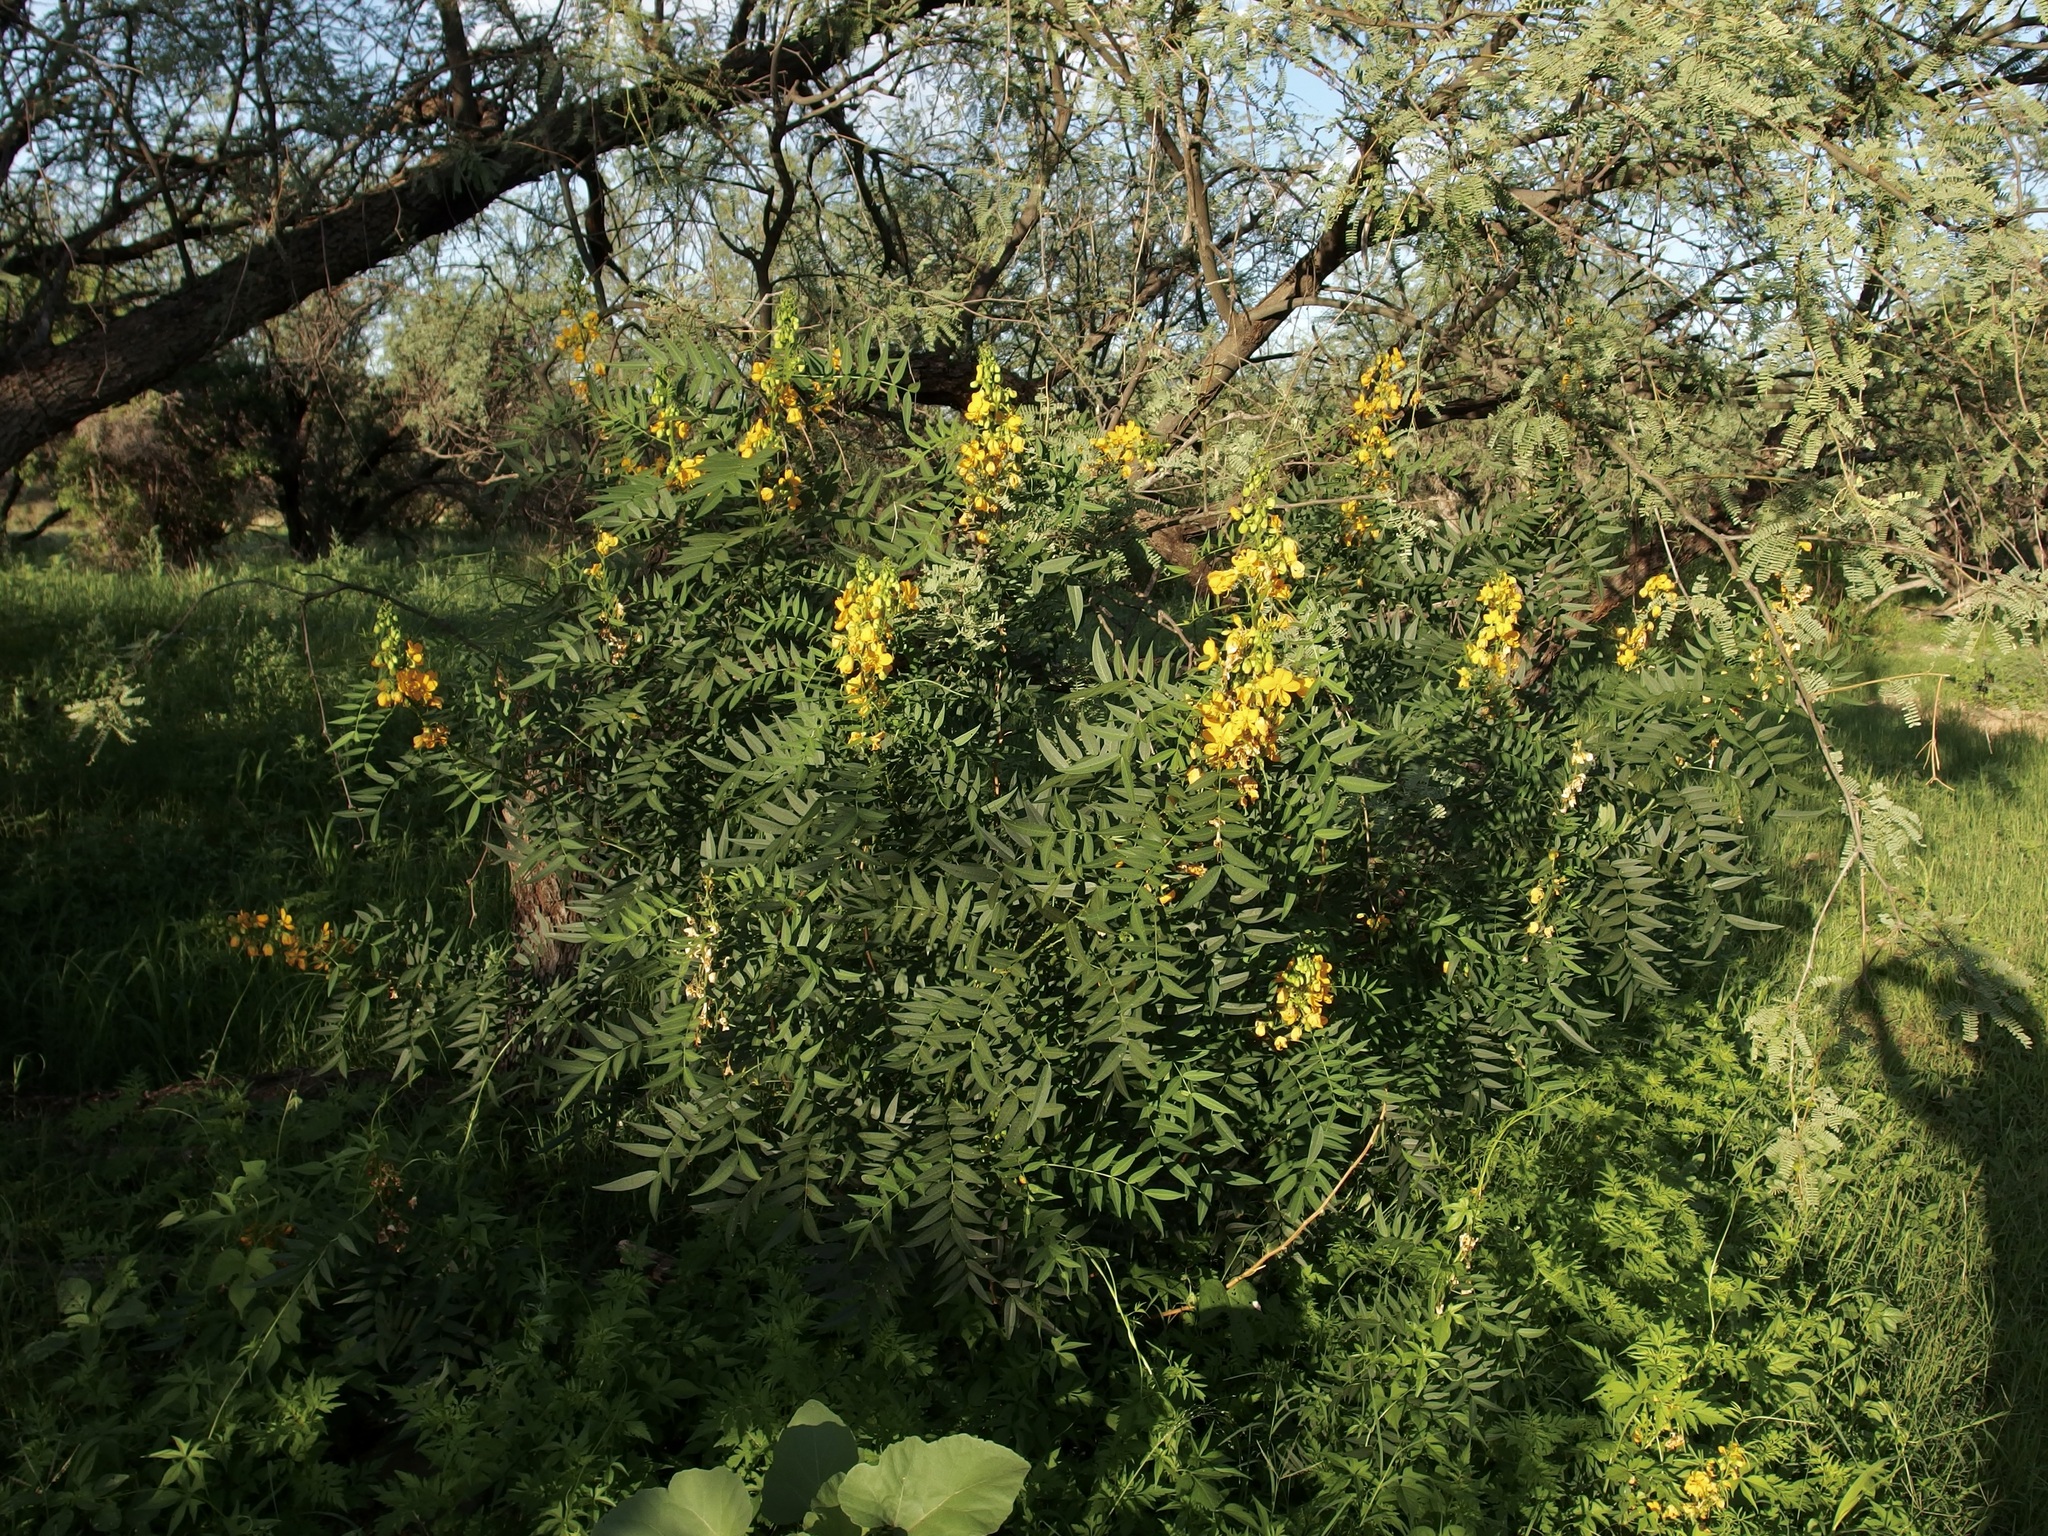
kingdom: Plantae
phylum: Tracheophyta
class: Magnoliopsida
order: Fabales
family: Fabaceae
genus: Senna
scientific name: Senna hirsuta
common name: Woolly senna
